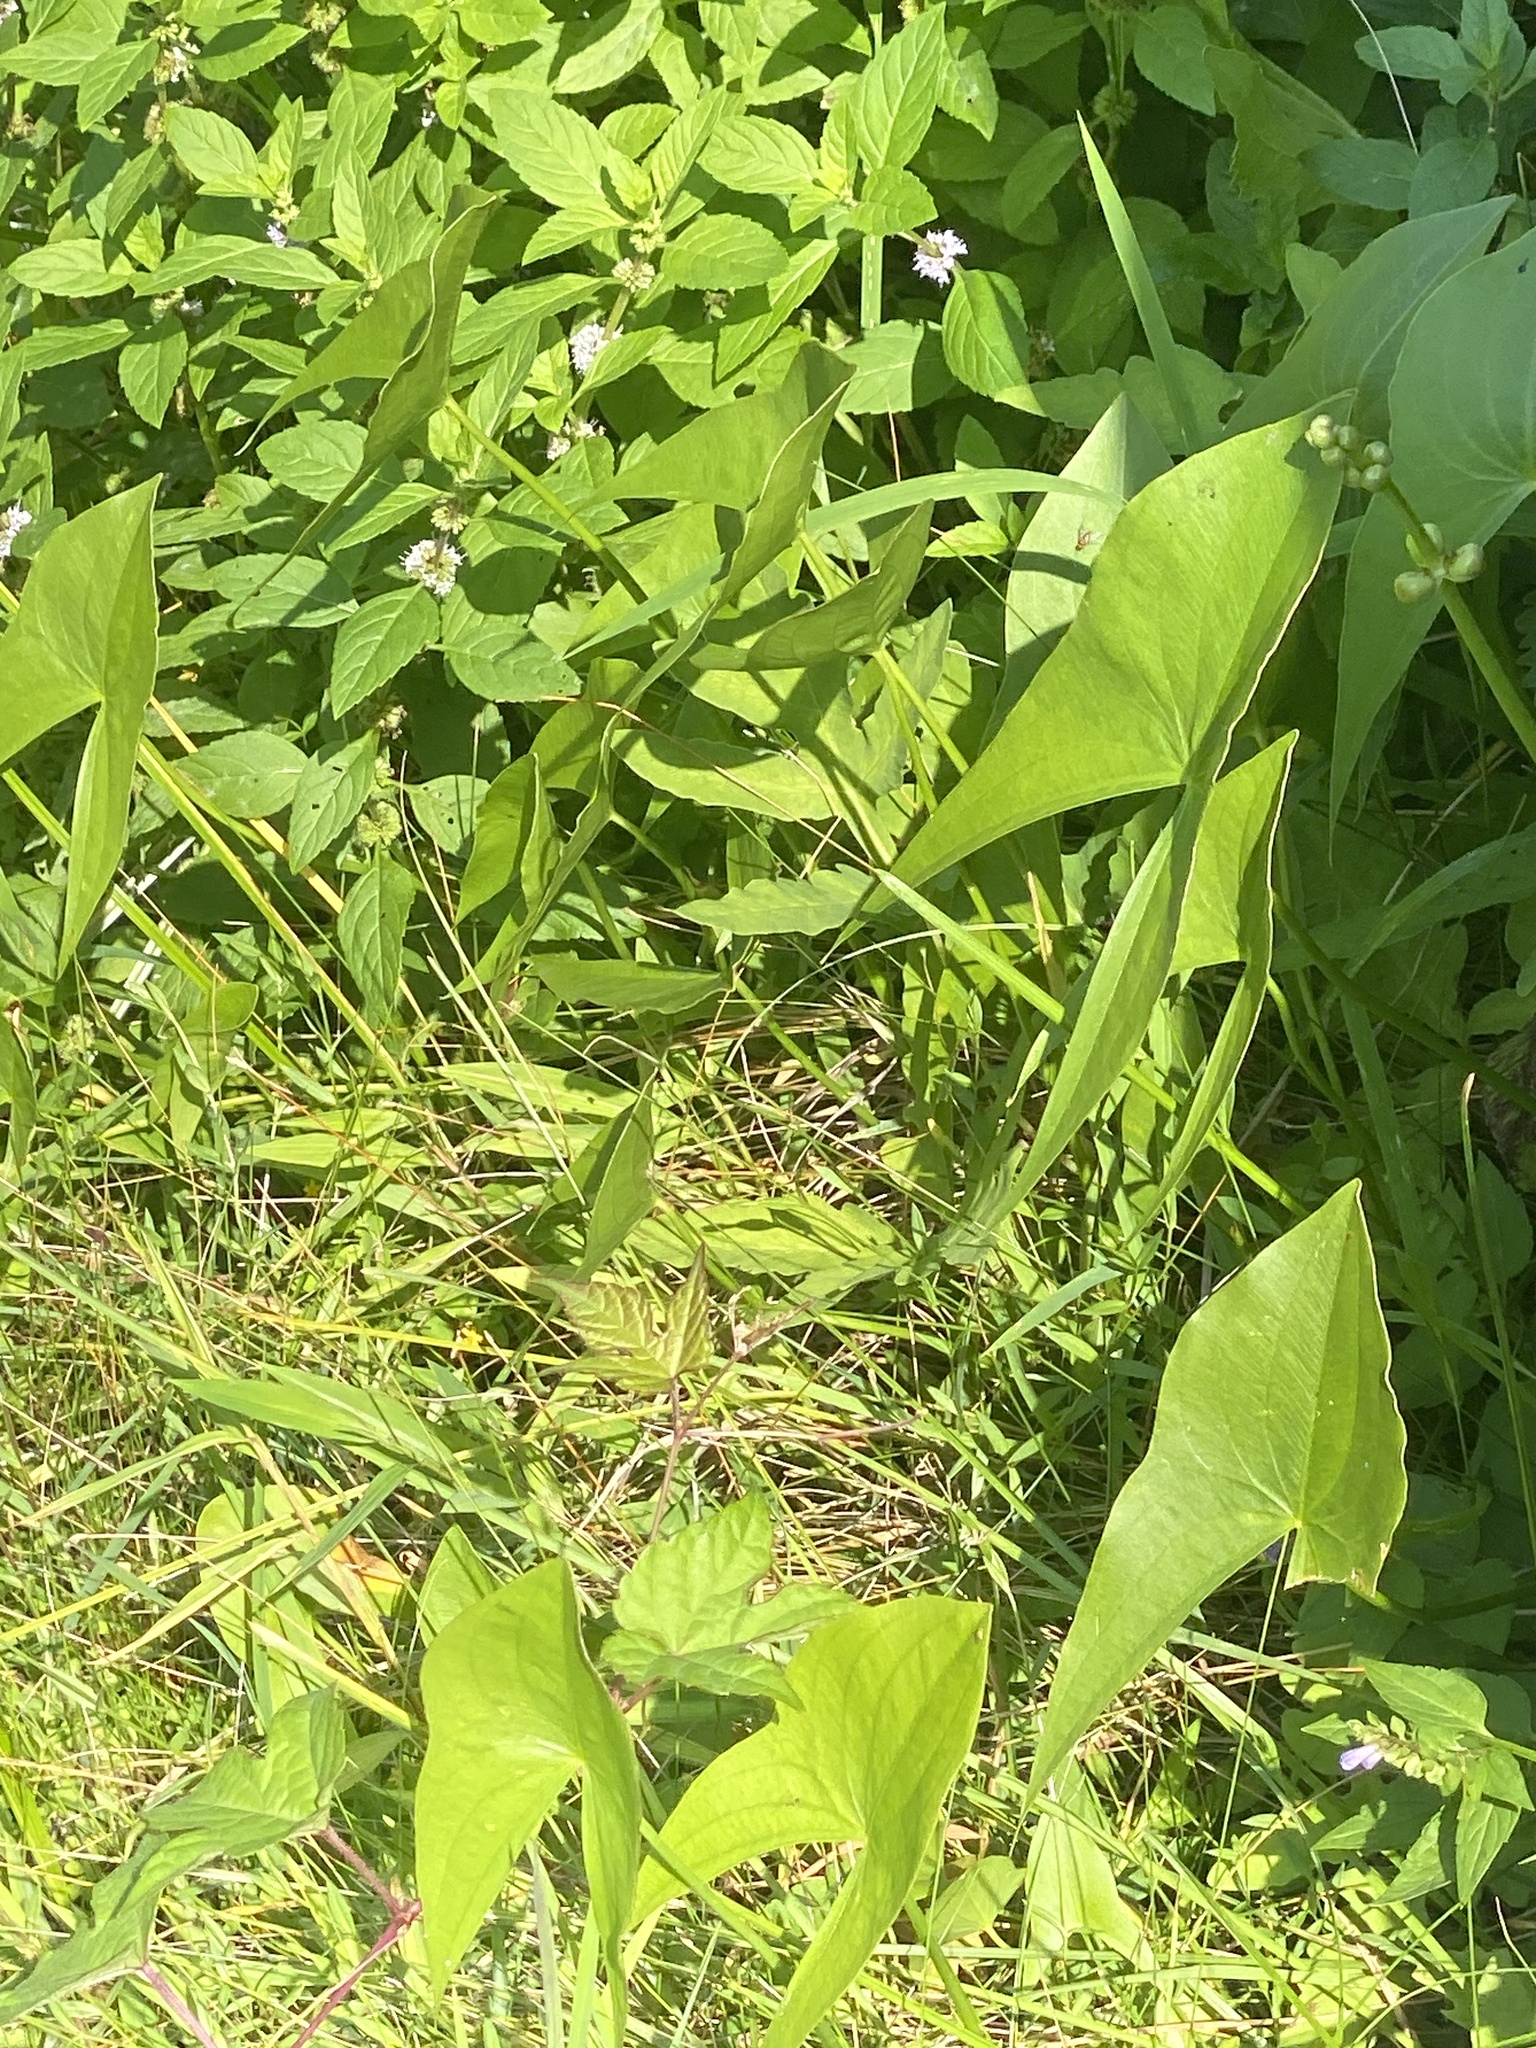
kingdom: Plantae
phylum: Tracheophyta
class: Liliopsida
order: Alismatales
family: Alismataceae
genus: Sagittaria
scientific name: Sagittaria latifolia
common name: Duck-potato
